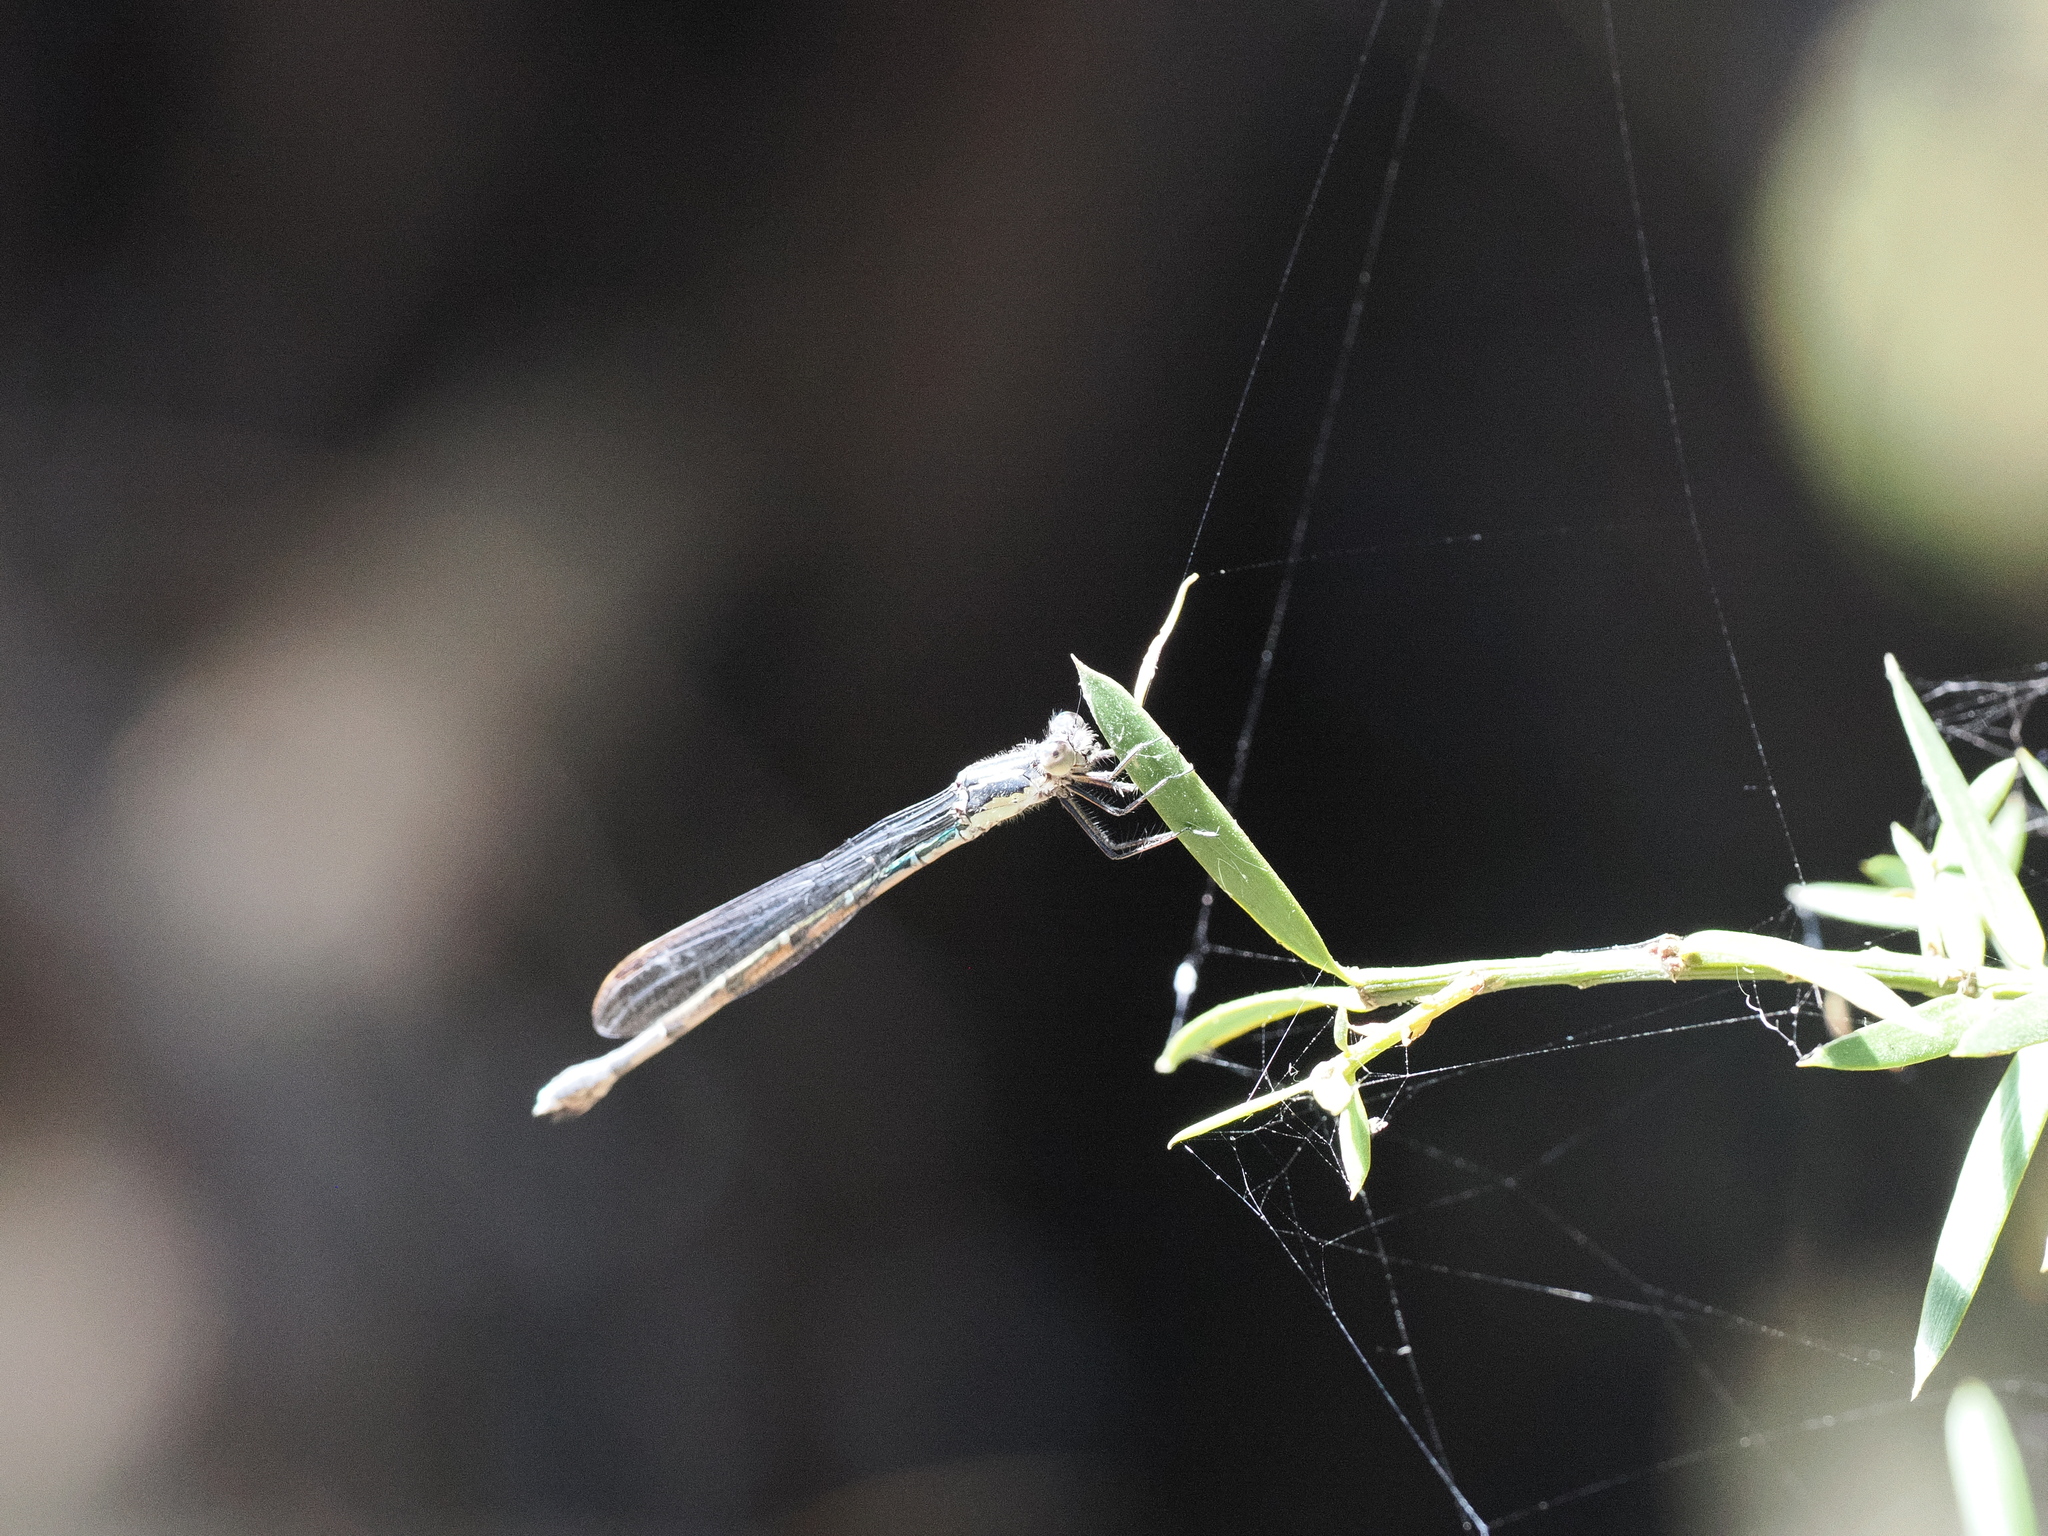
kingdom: Animalia
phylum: Arthropoda
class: Insecta
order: Odonata
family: Lestidae
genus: Austrolestes
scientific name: Austrolestes colensonis
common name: Blue damselfly
